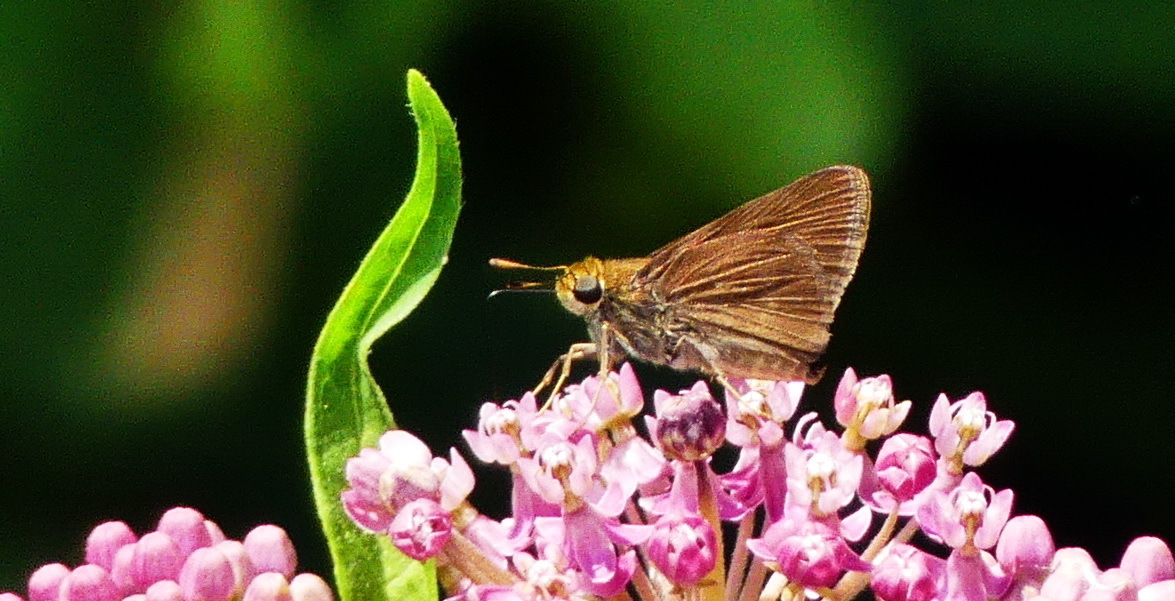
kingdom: Animalia
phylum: Arthropoda
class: Insecta
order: Lepidoptera
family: Hesperiidae
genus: Euphyes
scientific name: Euphyes vestris
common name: Dun skipper
